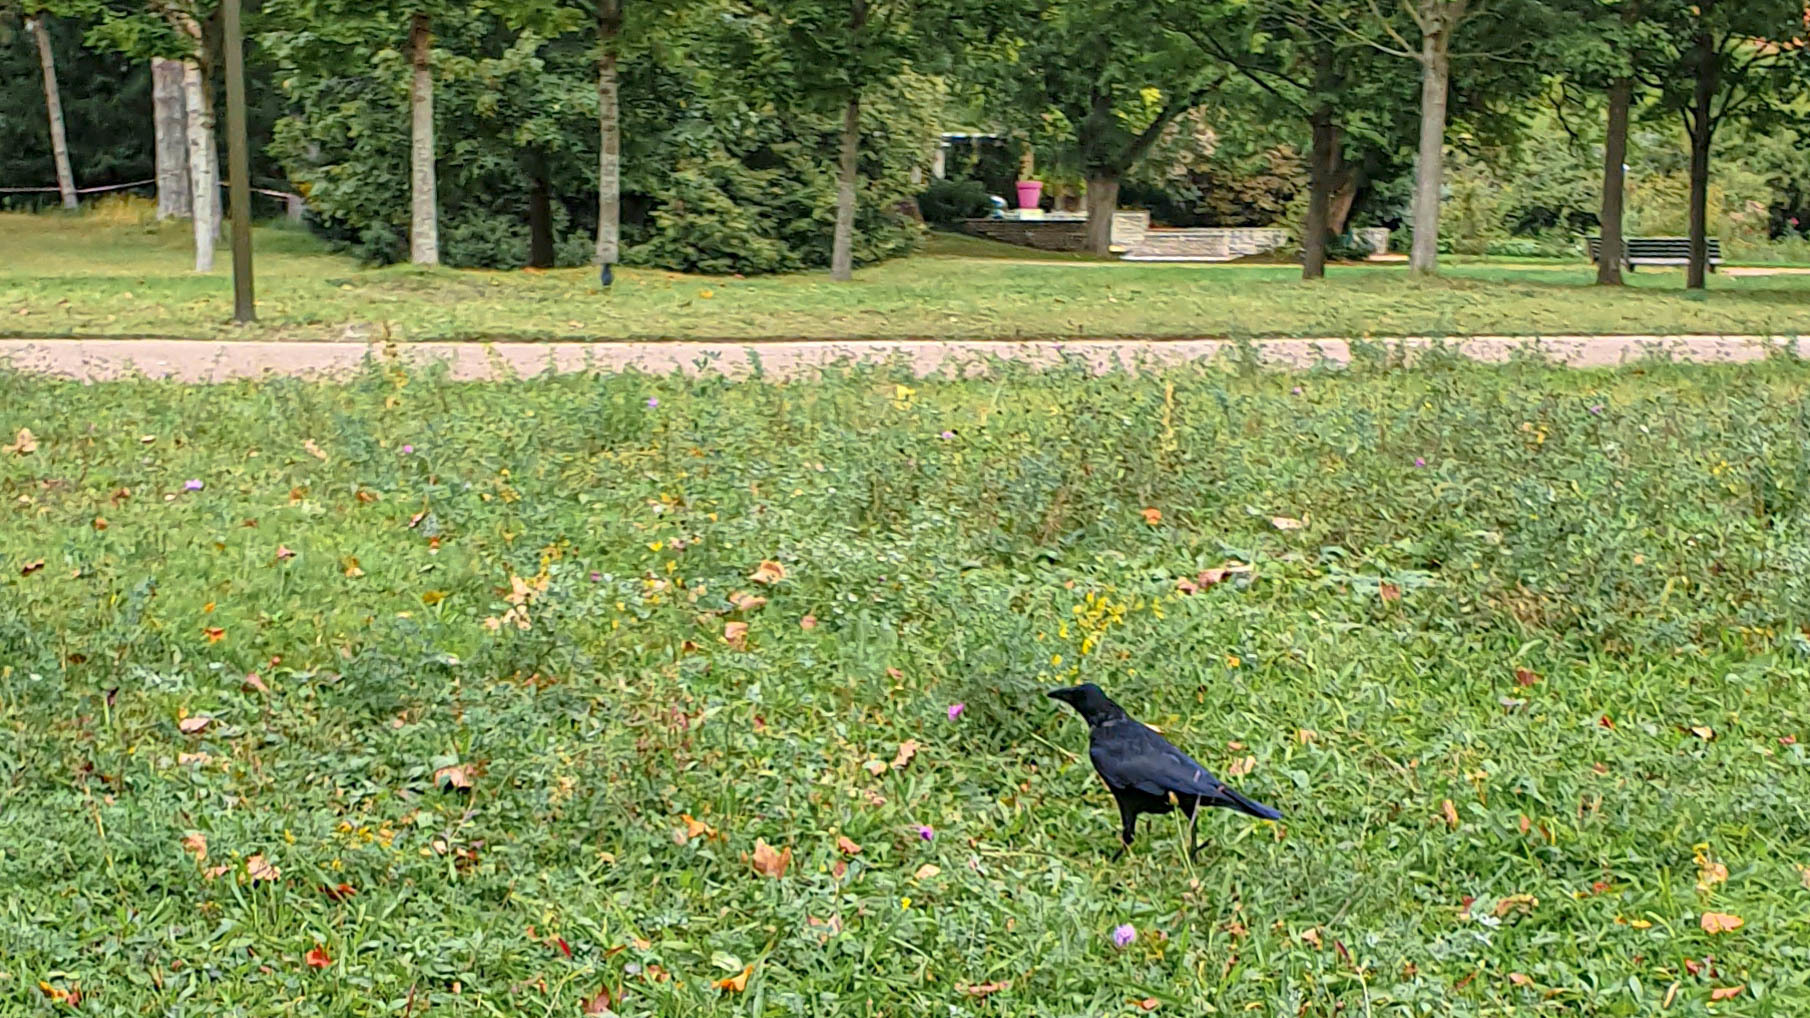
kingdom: Animalia
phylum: Chordata
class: Aves
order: Passeriformes
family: Corvidae
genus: Corvus
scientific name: Corvus corone
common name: Carrion crow
